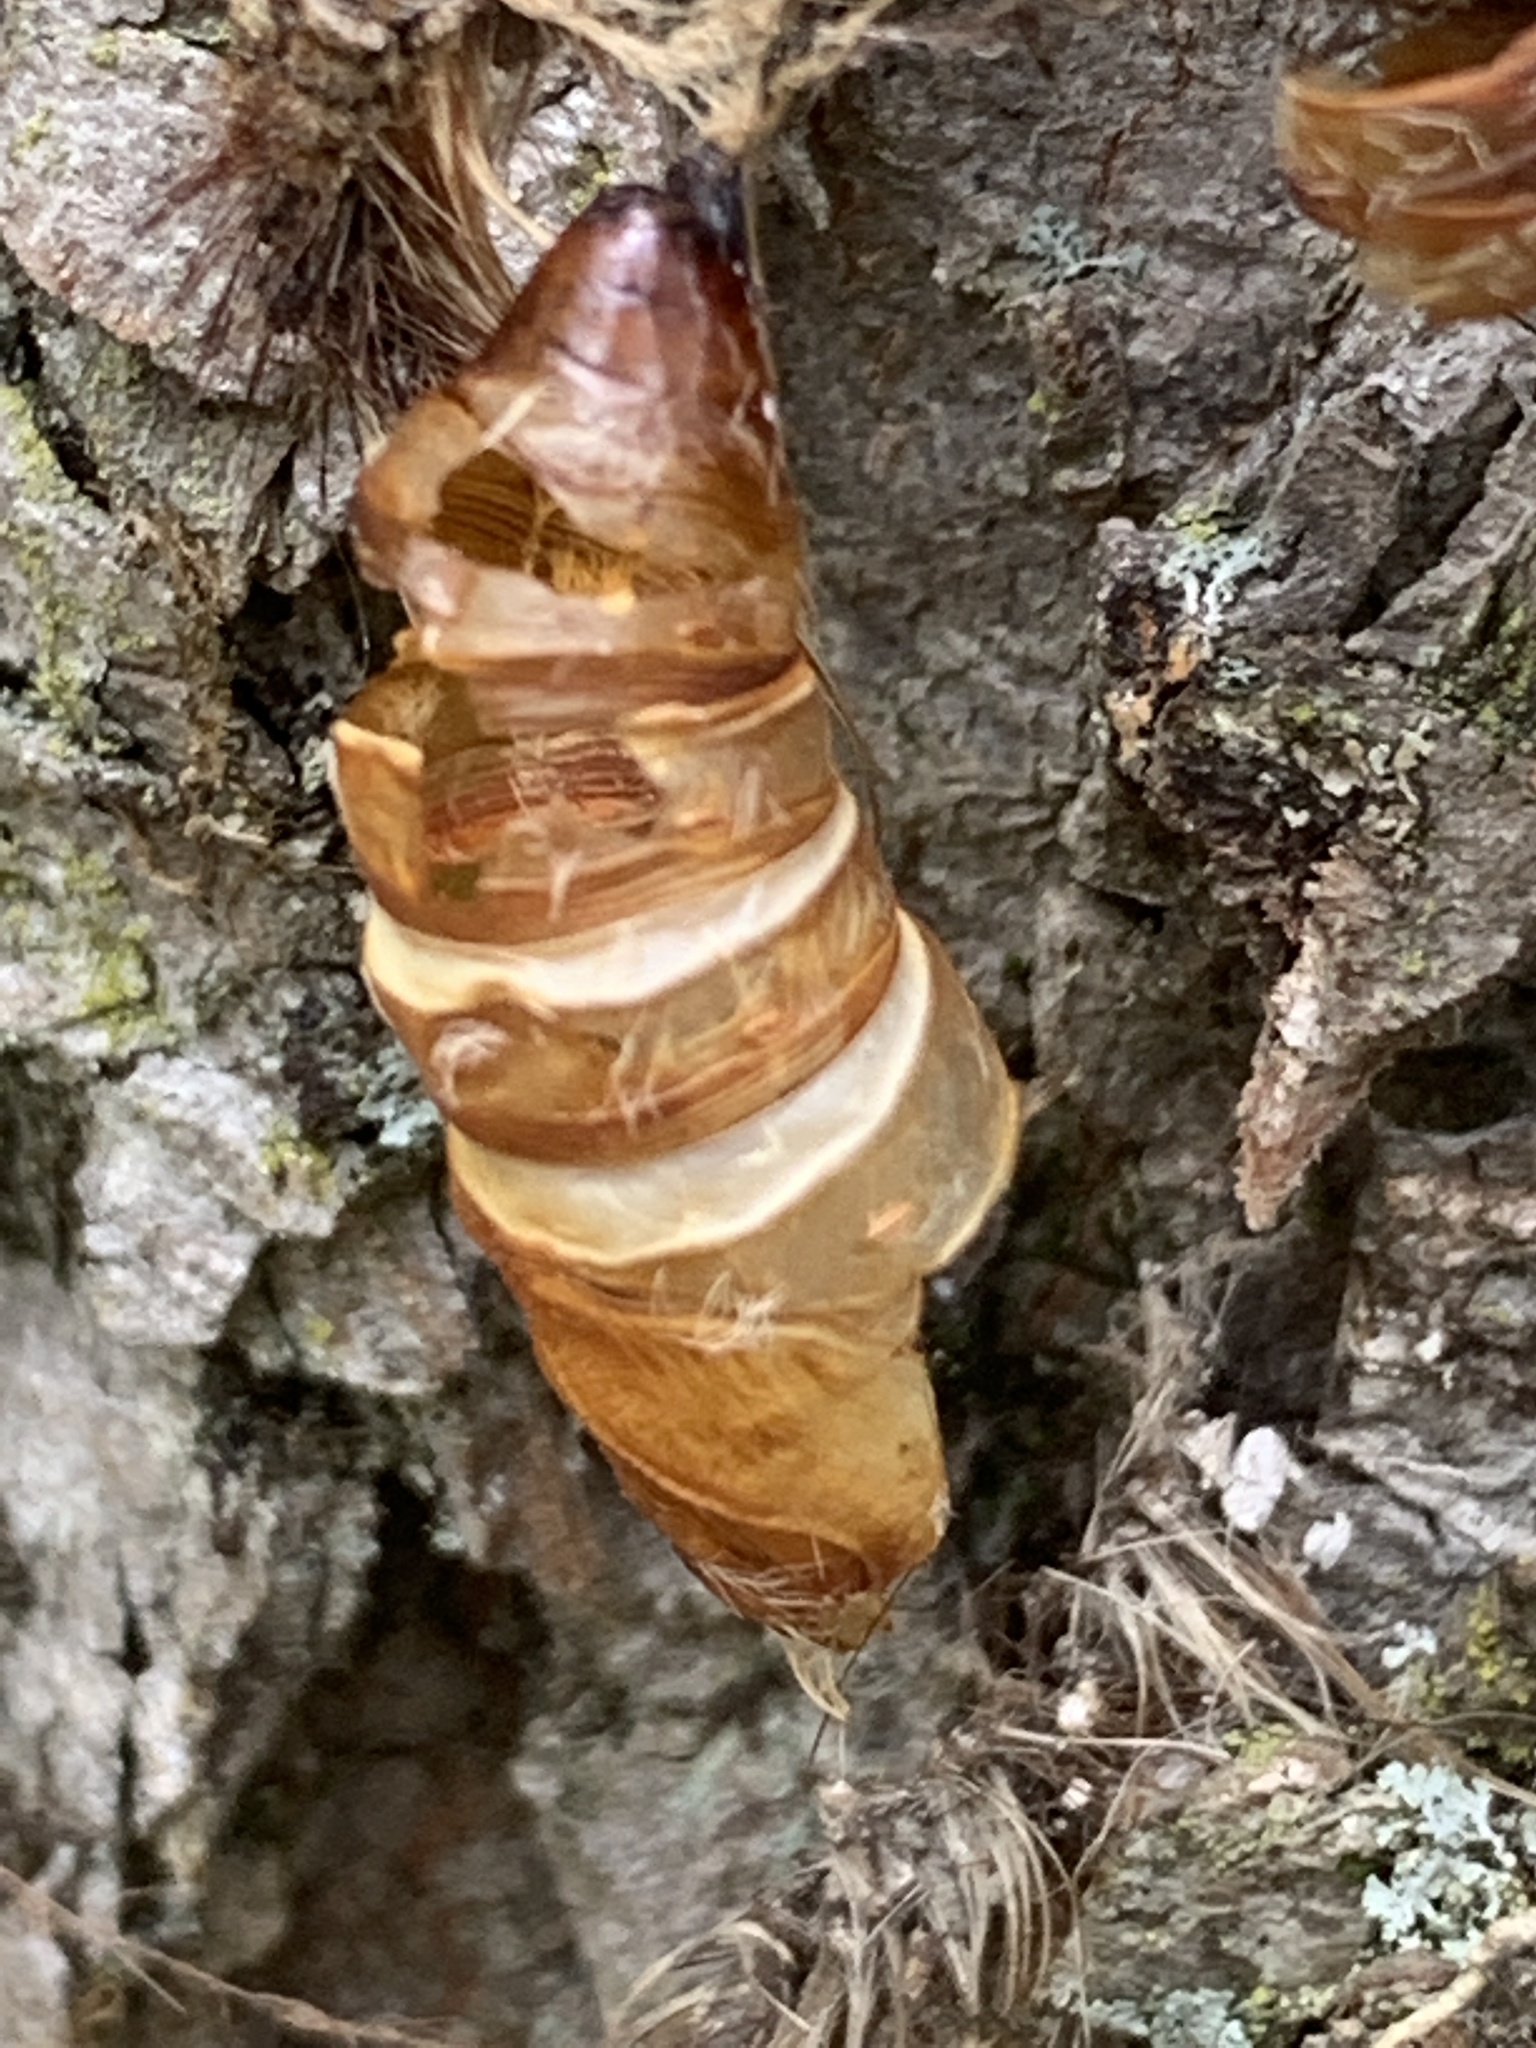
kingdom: Animalia
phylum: Arthropoda
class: Insecta
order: Lepidoptera
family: Erebidae
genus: Lymantria
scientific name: Lymantria dispar
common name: Gypsy moth
